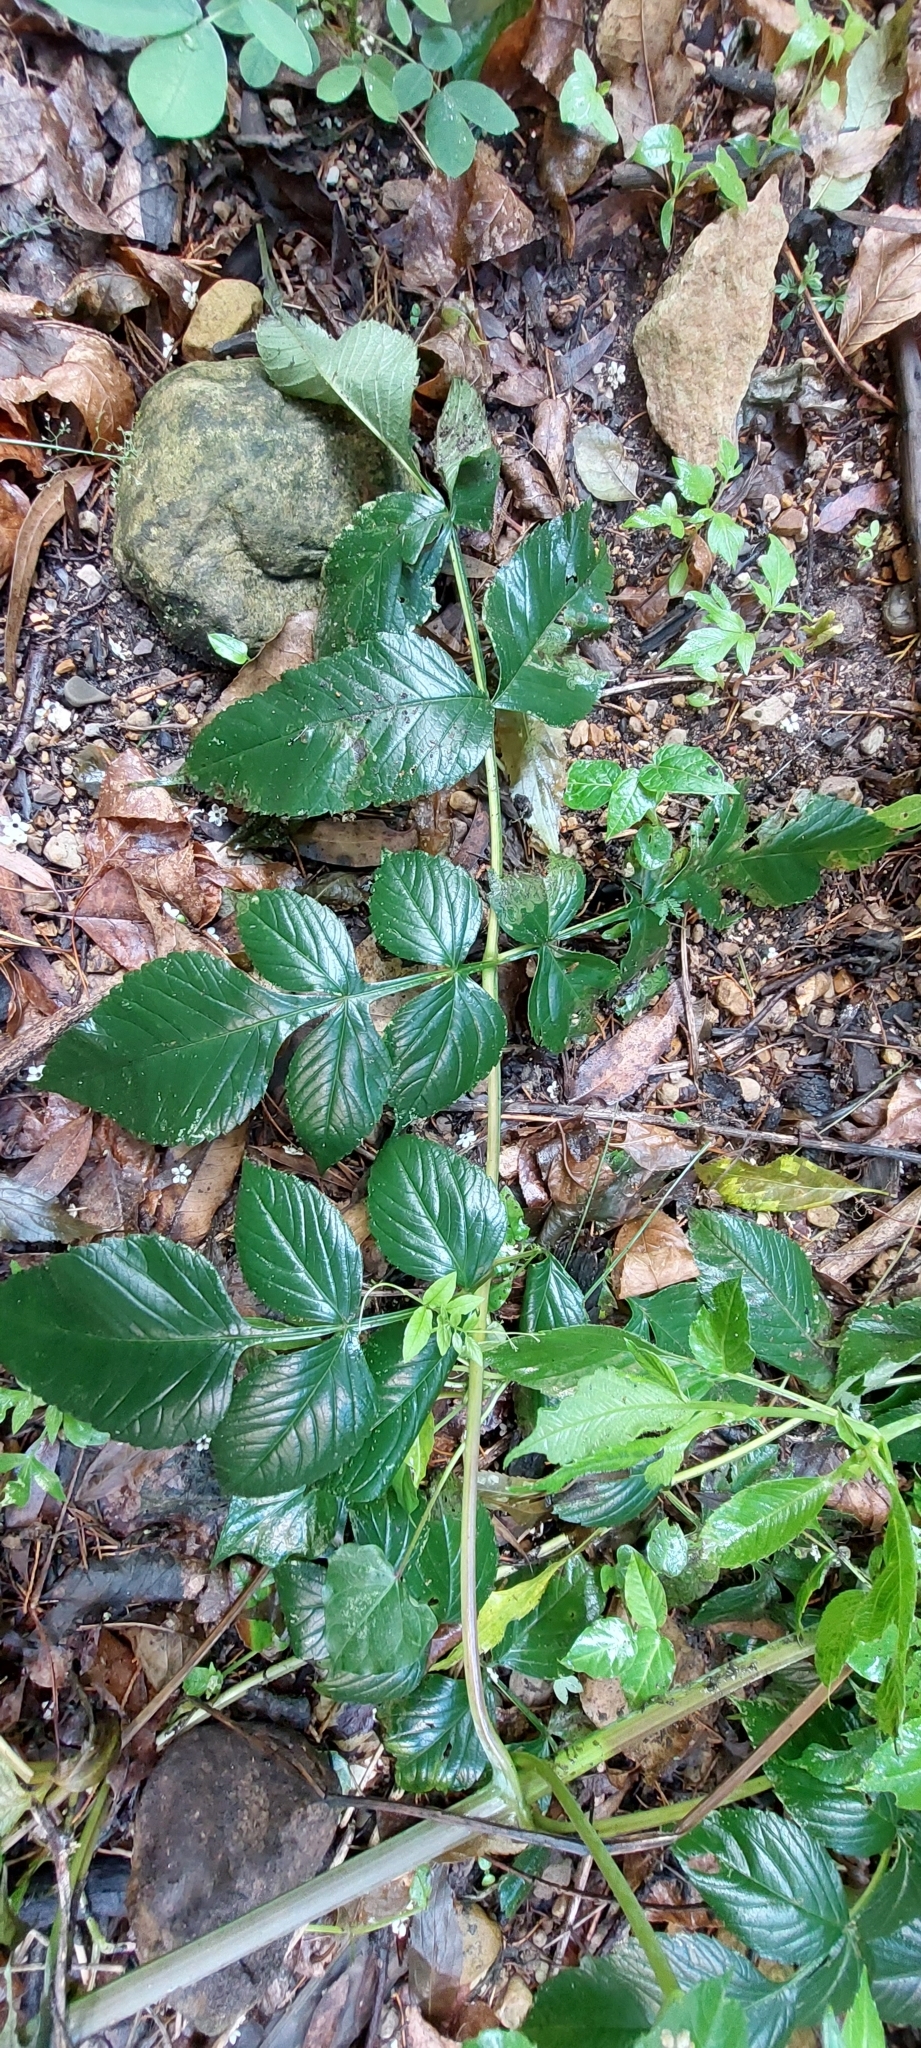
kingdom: Plantae
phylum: Tracheophyta
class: Magnoliopsida
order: Asterales
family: Asteraceae
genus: Dahlia
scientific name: Dahlia imperialis
